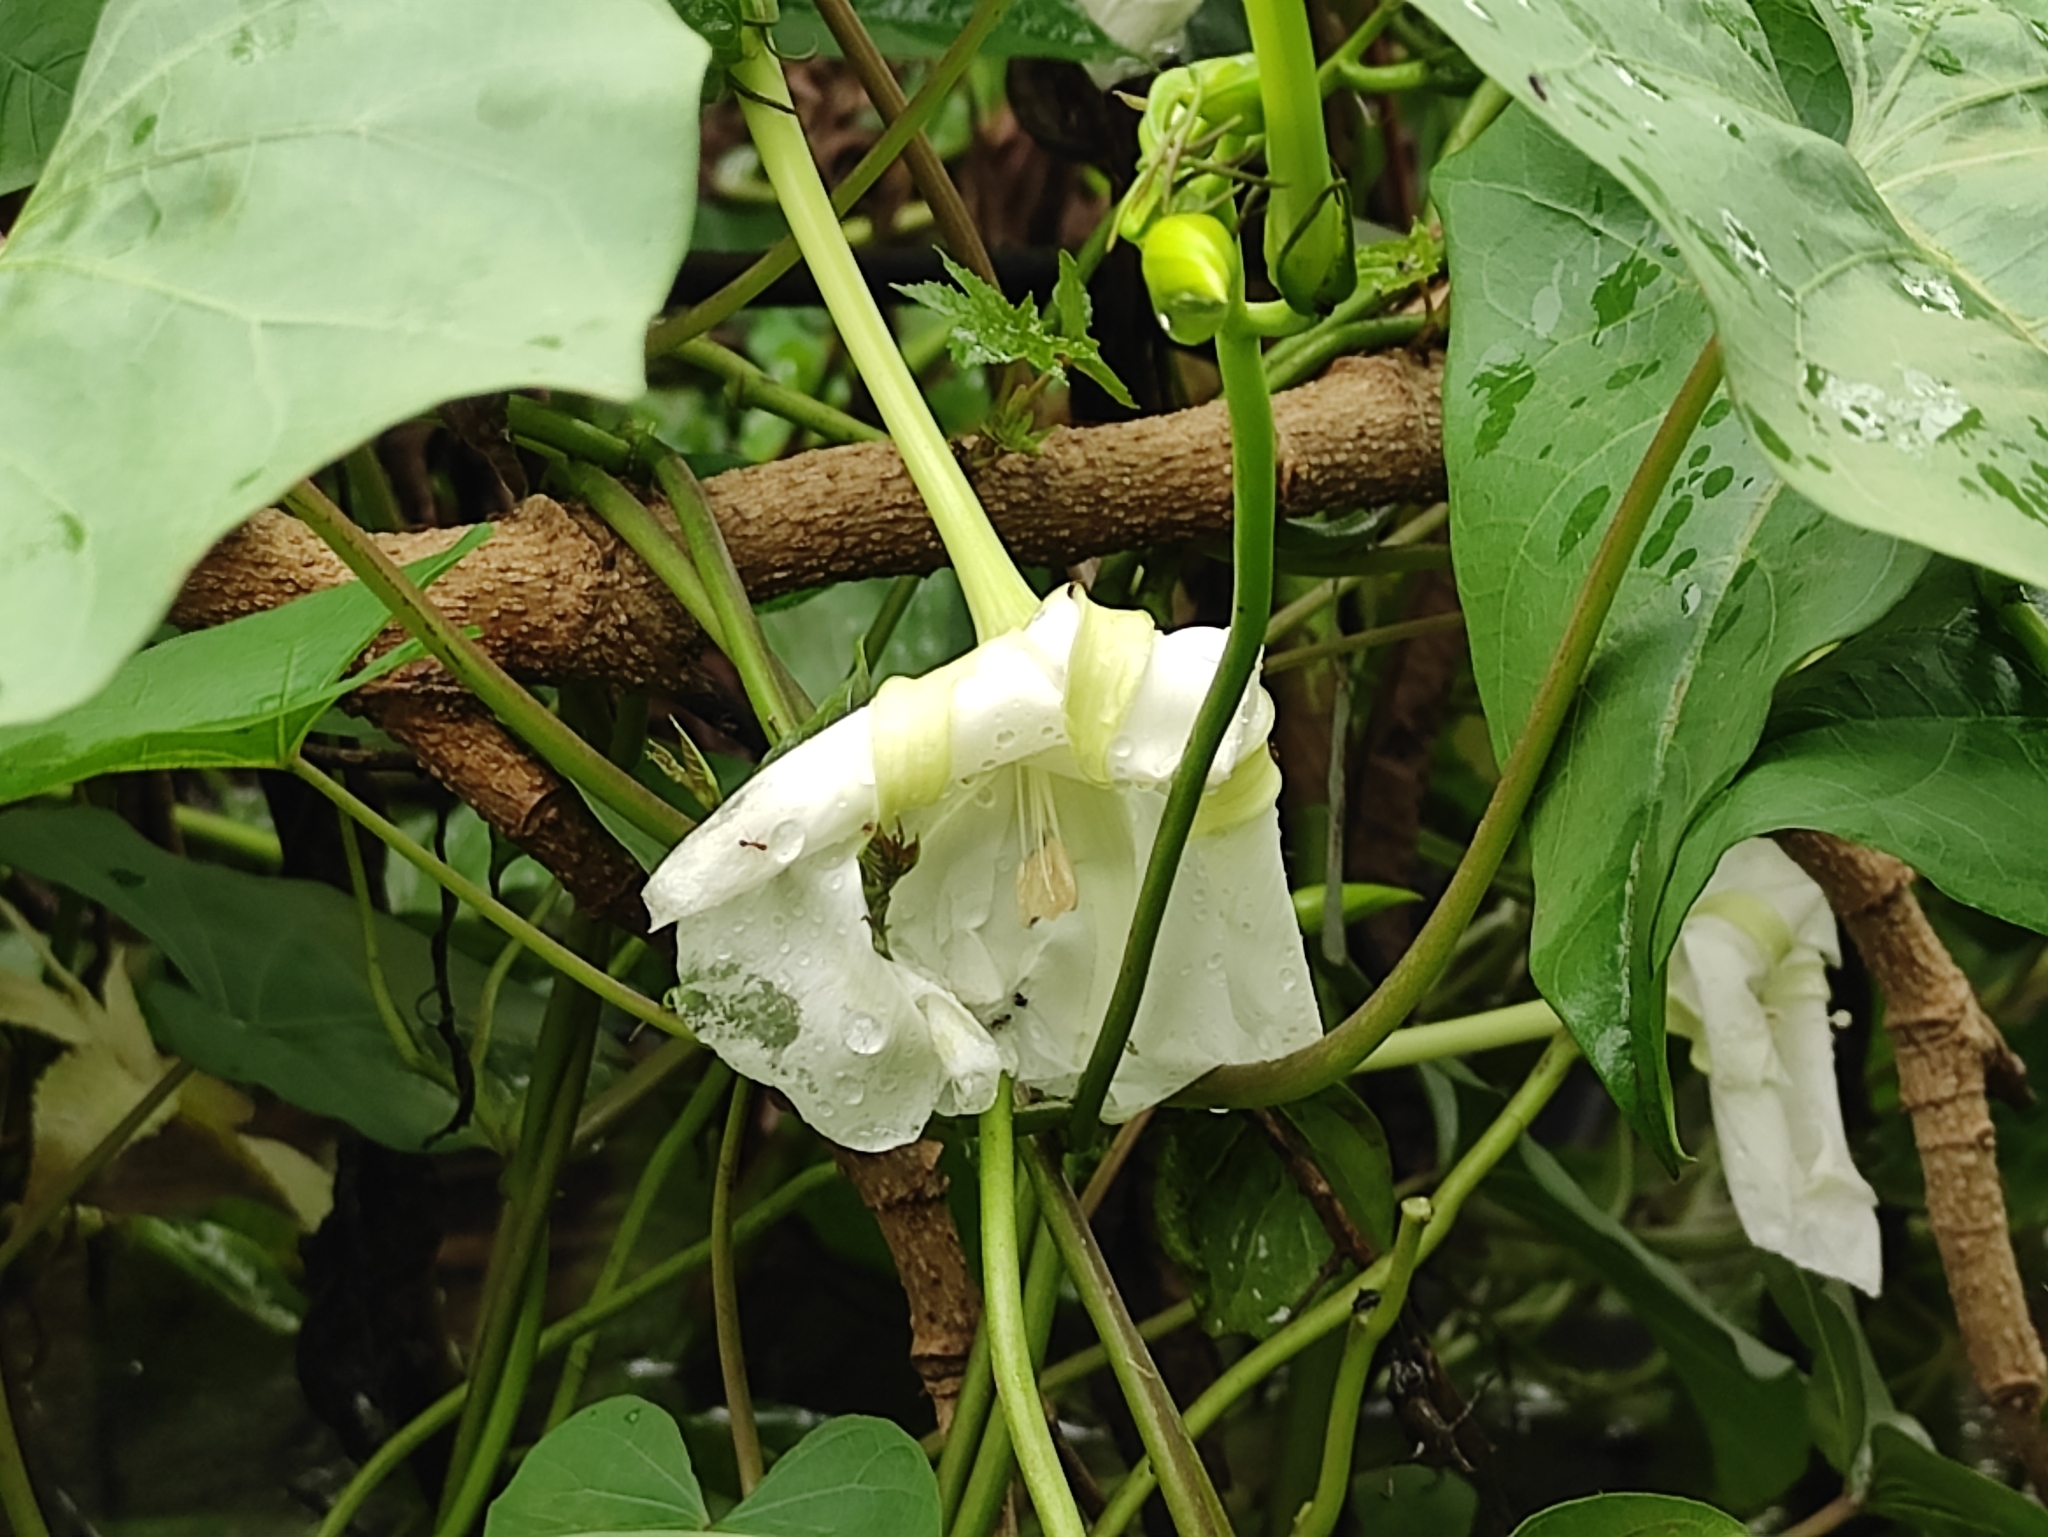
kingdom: Plantae
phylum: Tracheophyta
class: Magnoliopsida
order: Solanales
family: Convolvulaceae
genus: Ipomoea
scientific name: Ipomoea alba
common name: Moonflower
